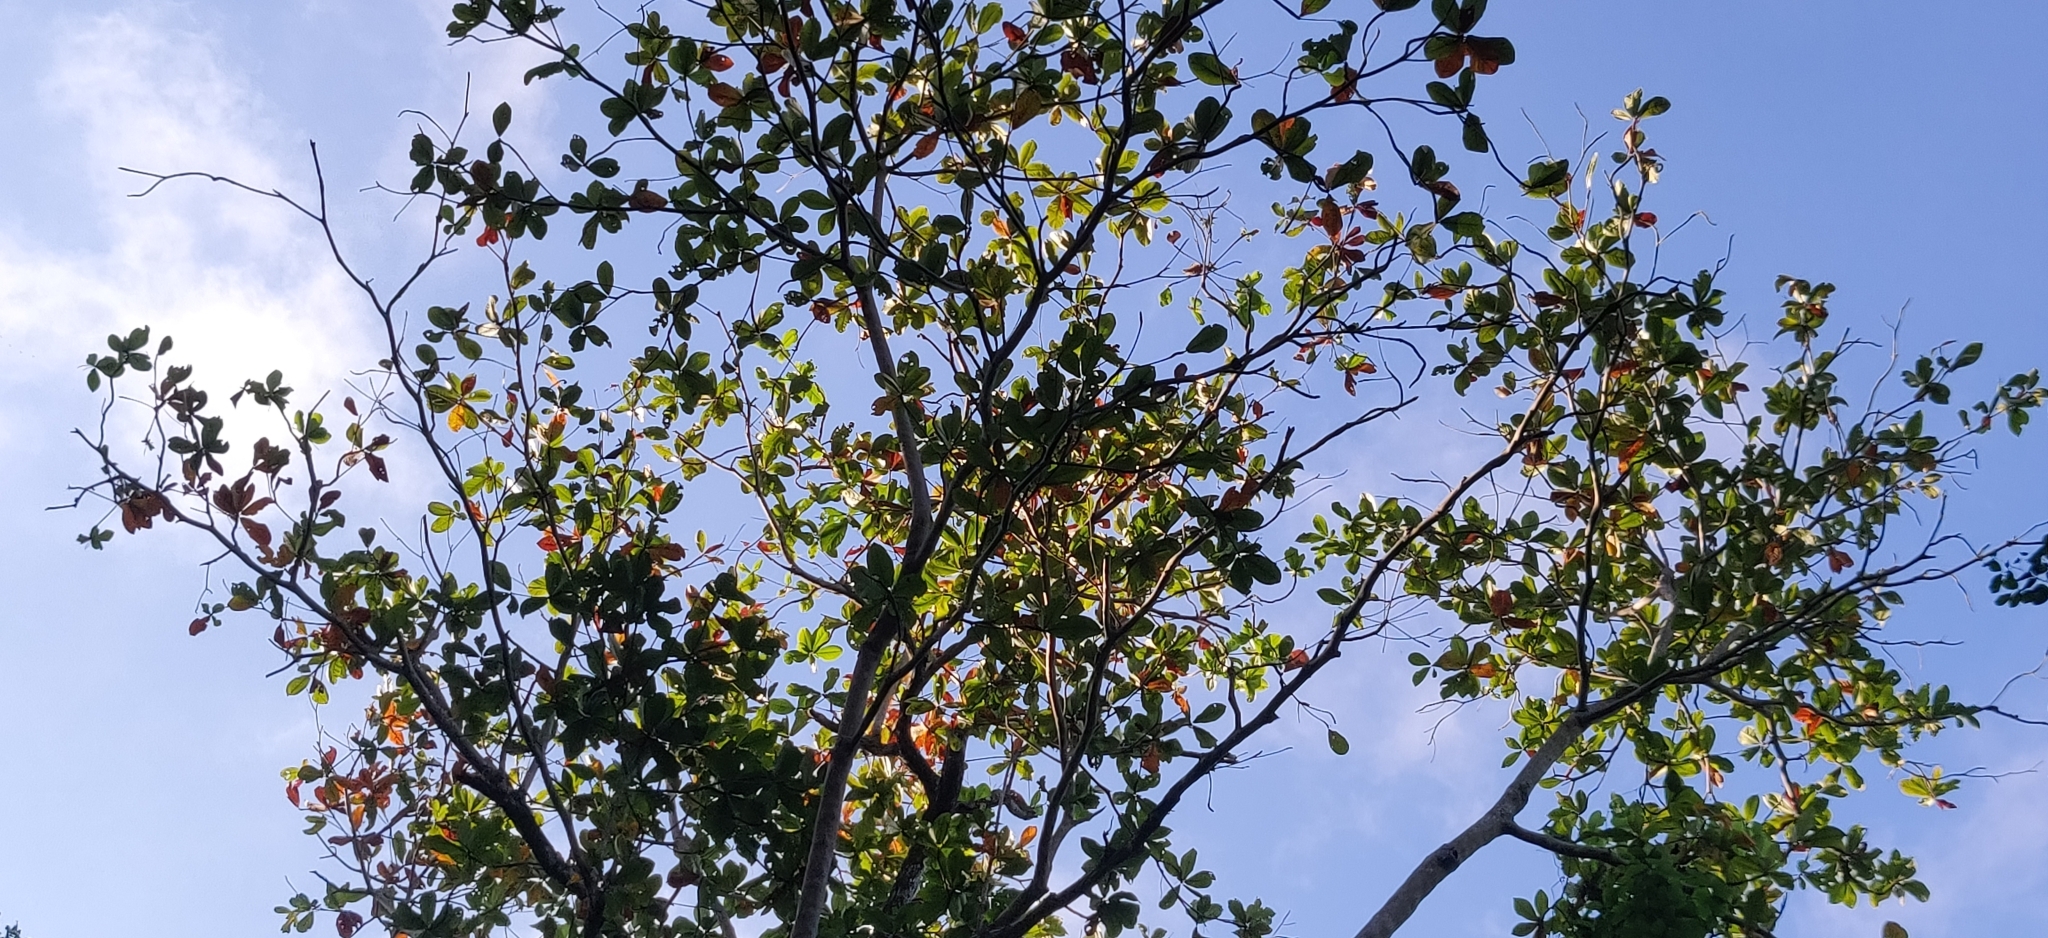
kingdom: Plantae
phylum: Tracheophyta
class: Magnoliopsida
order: Oxalidales
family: Elaeocarpaceae
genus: Elaeocarpus
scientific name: Elaeocarpus rugosus
